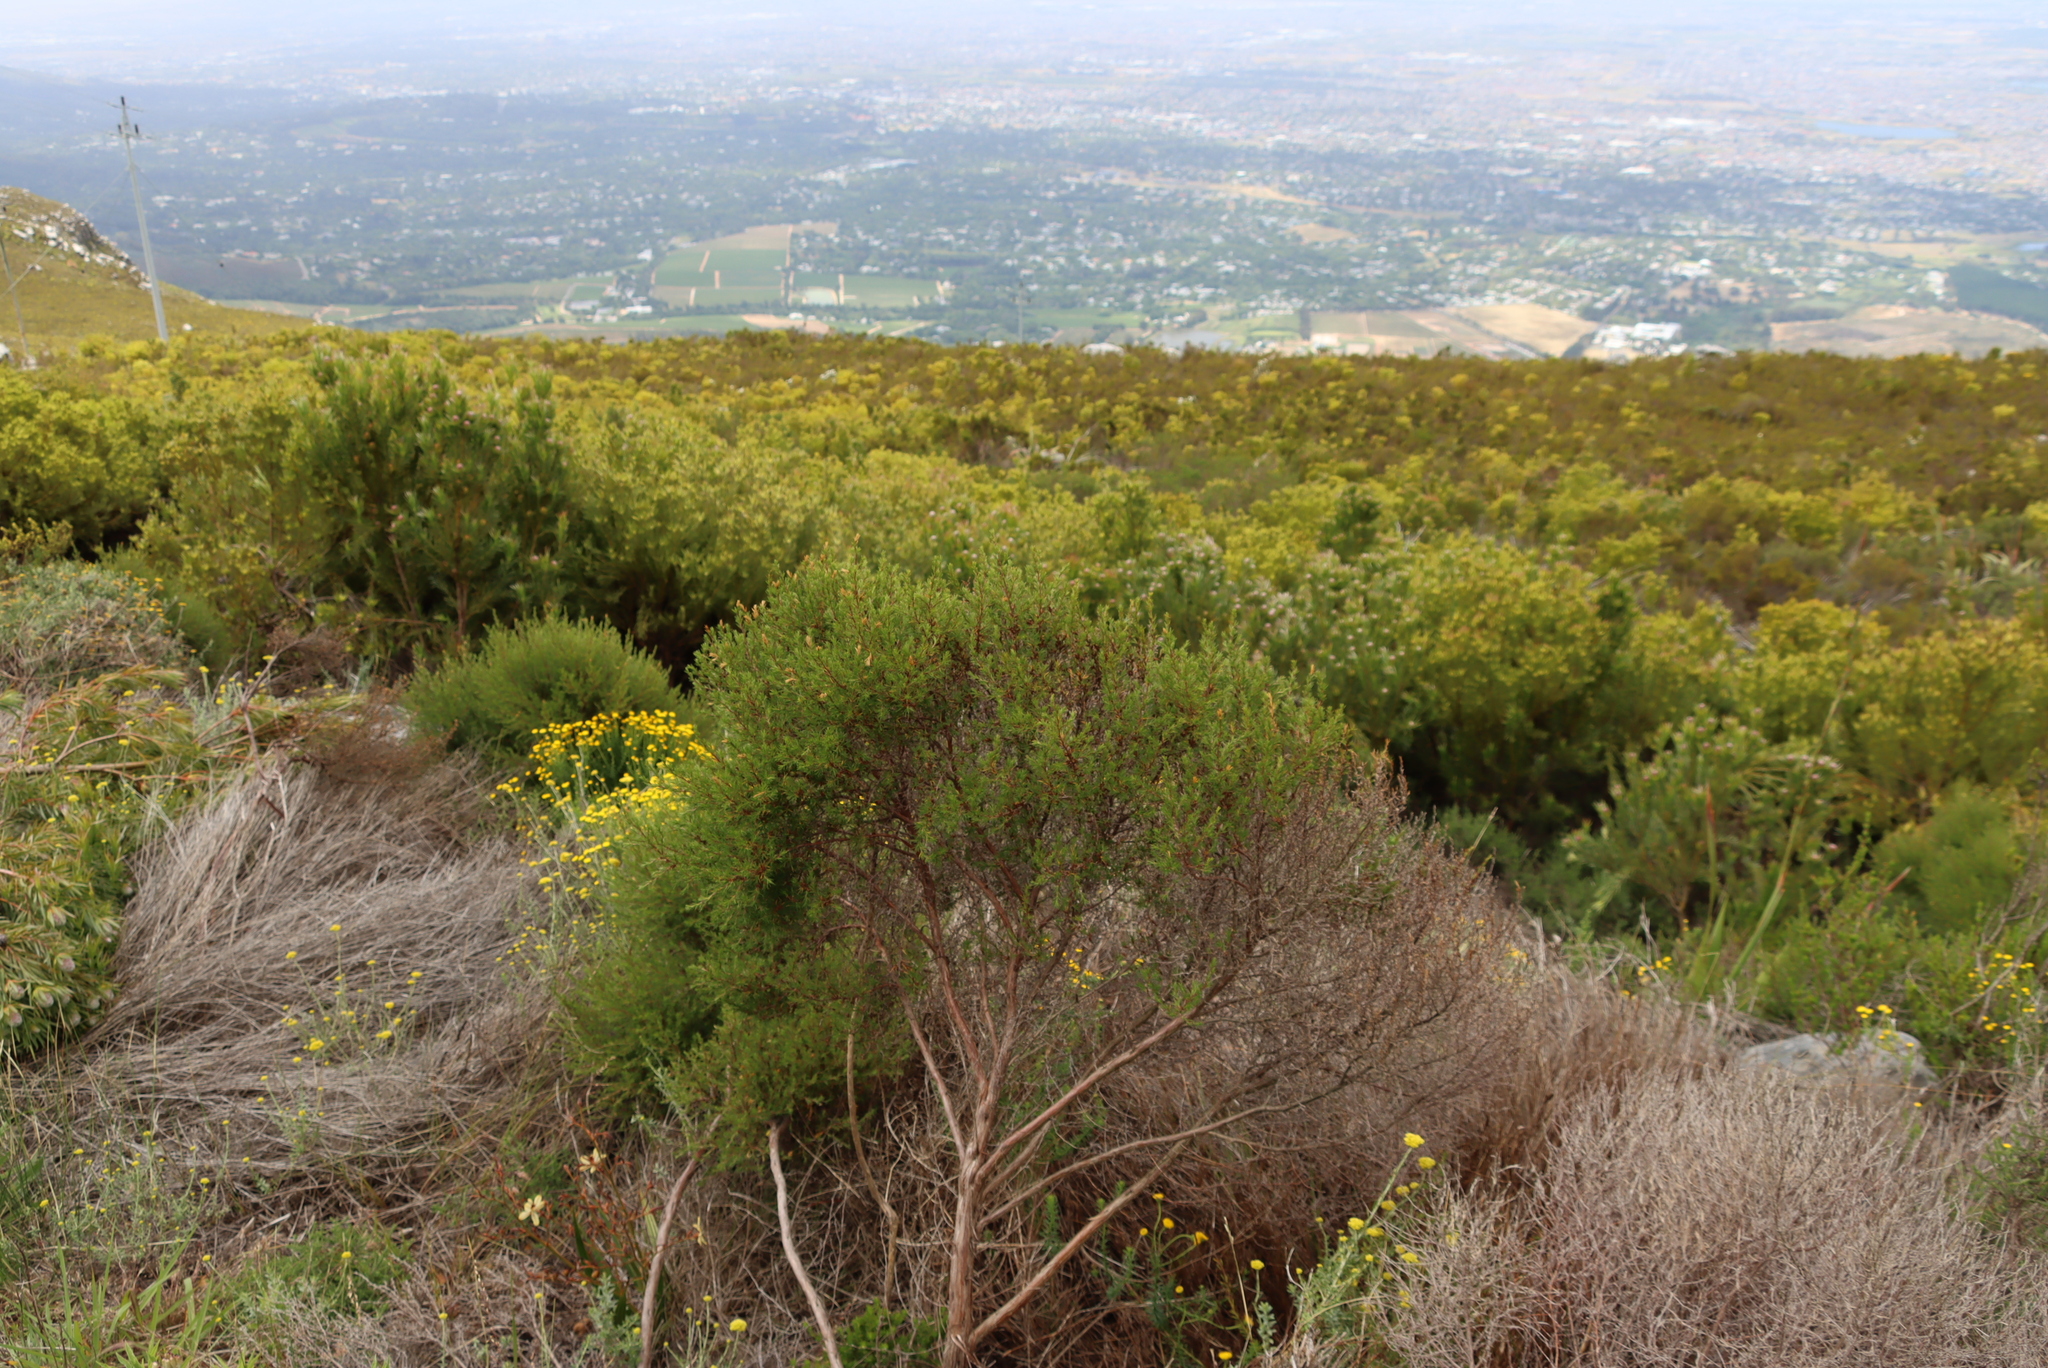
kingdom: Plantae
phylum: Tracheophyta
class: Magnoliopsida
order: Rosales
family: Rosaceae
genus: Cliffortia
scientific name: Cliffortia atrata
